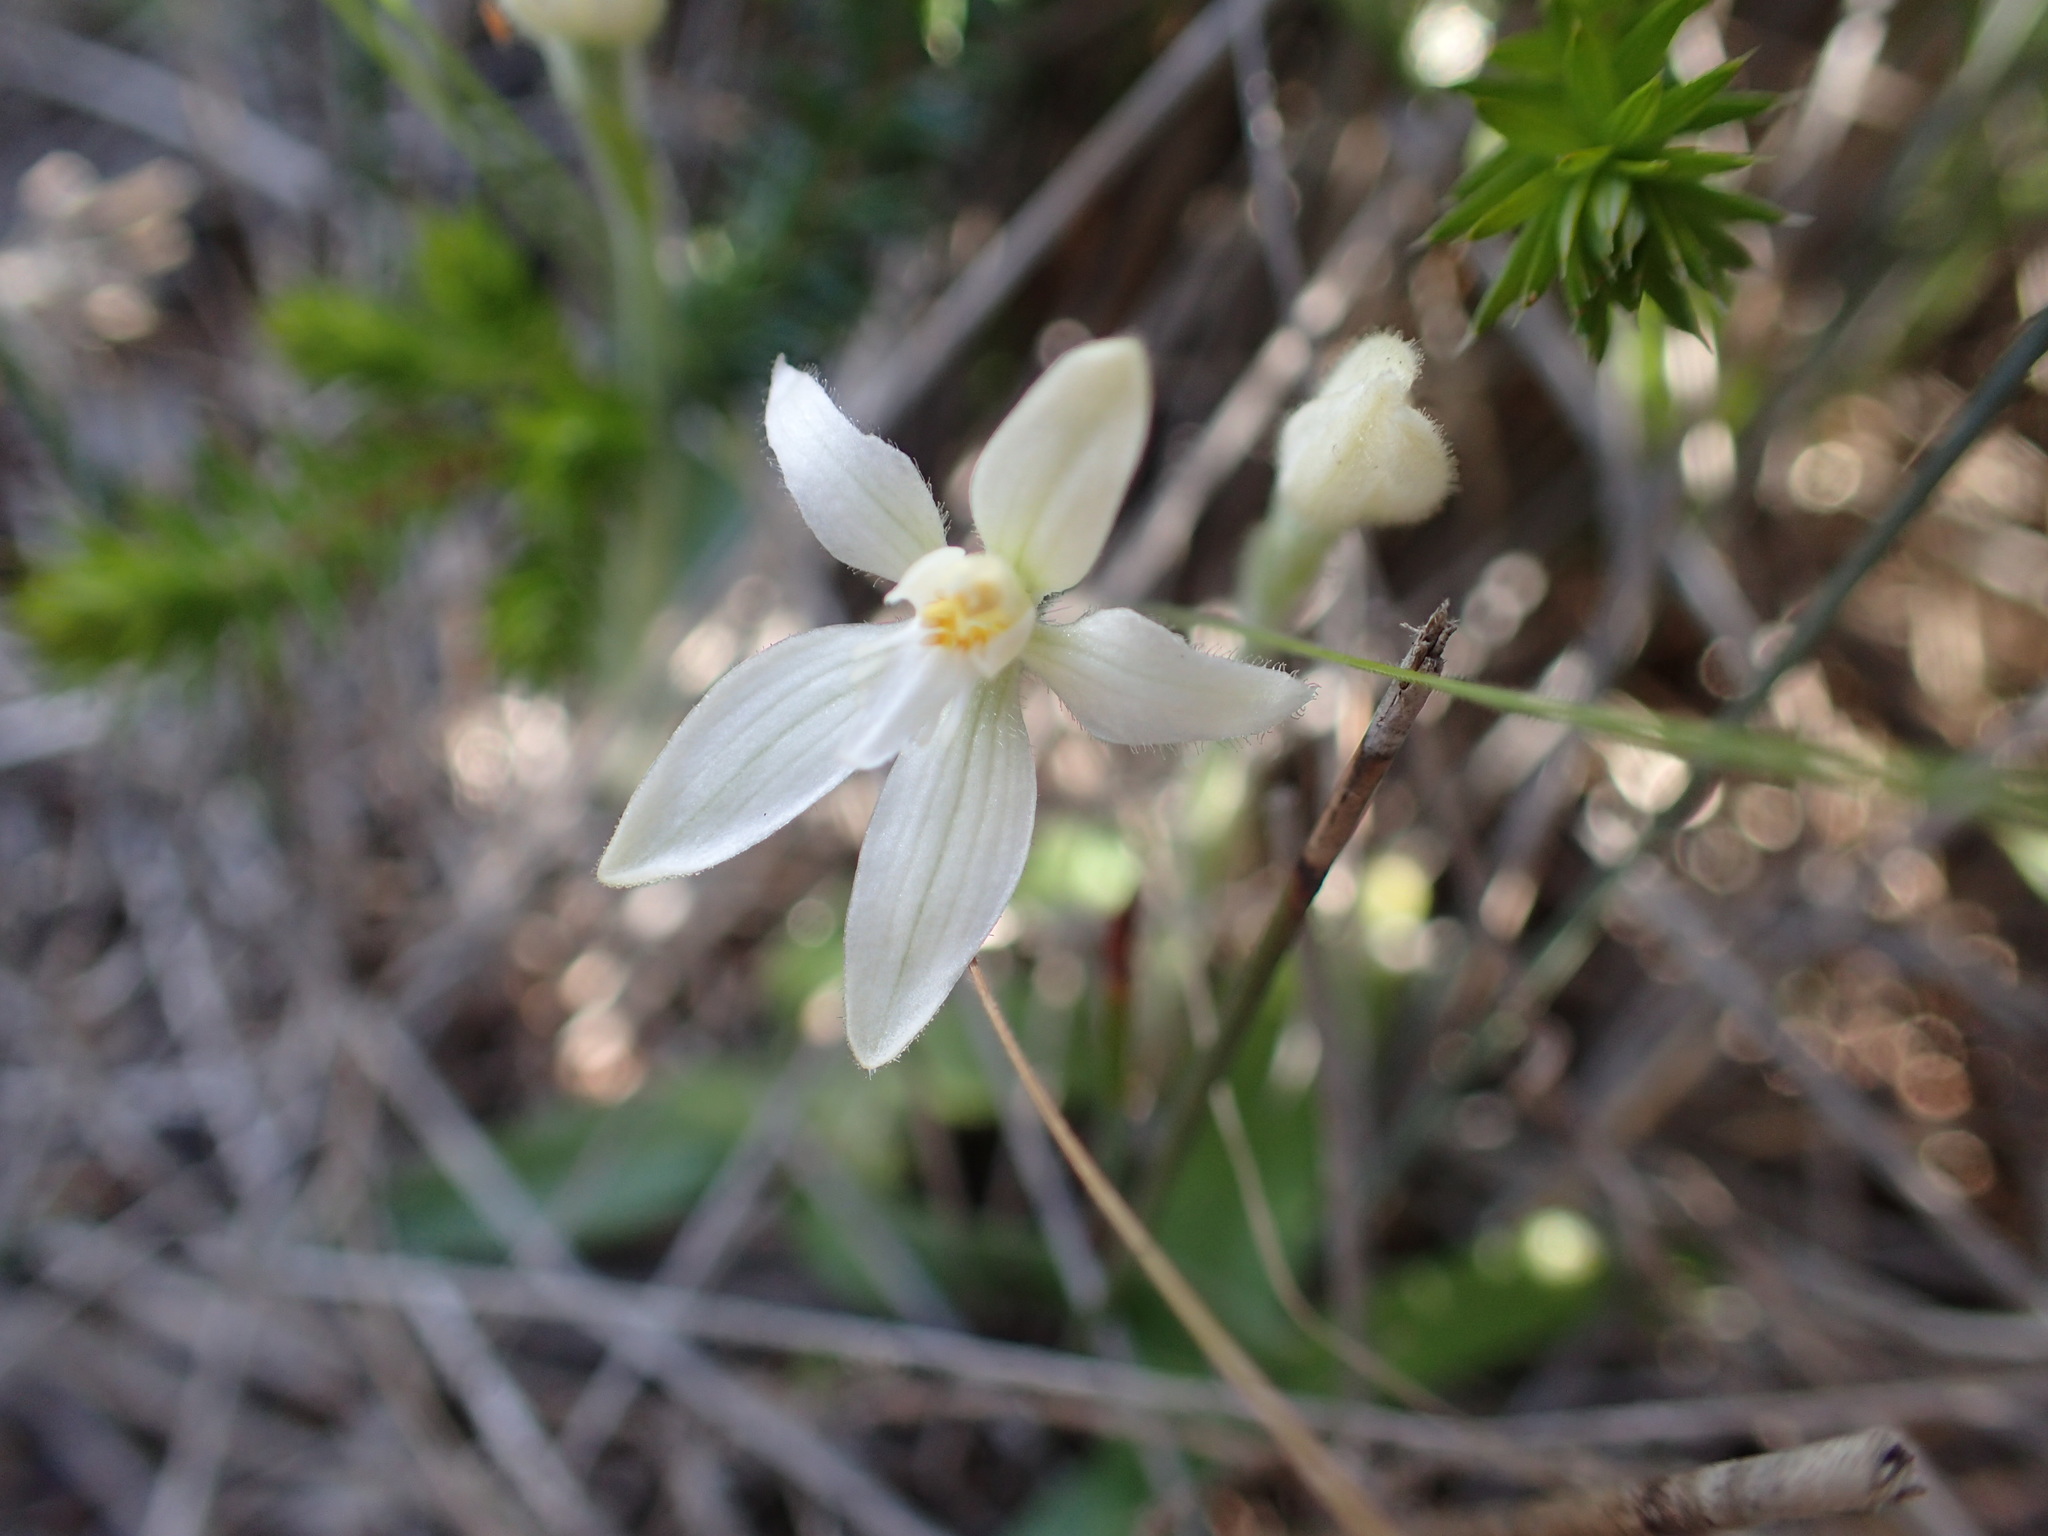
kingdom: Plantae
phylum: Tracheophyta
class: Liliopsida
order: Asparagales
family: Orchidaceae
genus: Caladenia
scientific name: Caladenia latifolia
